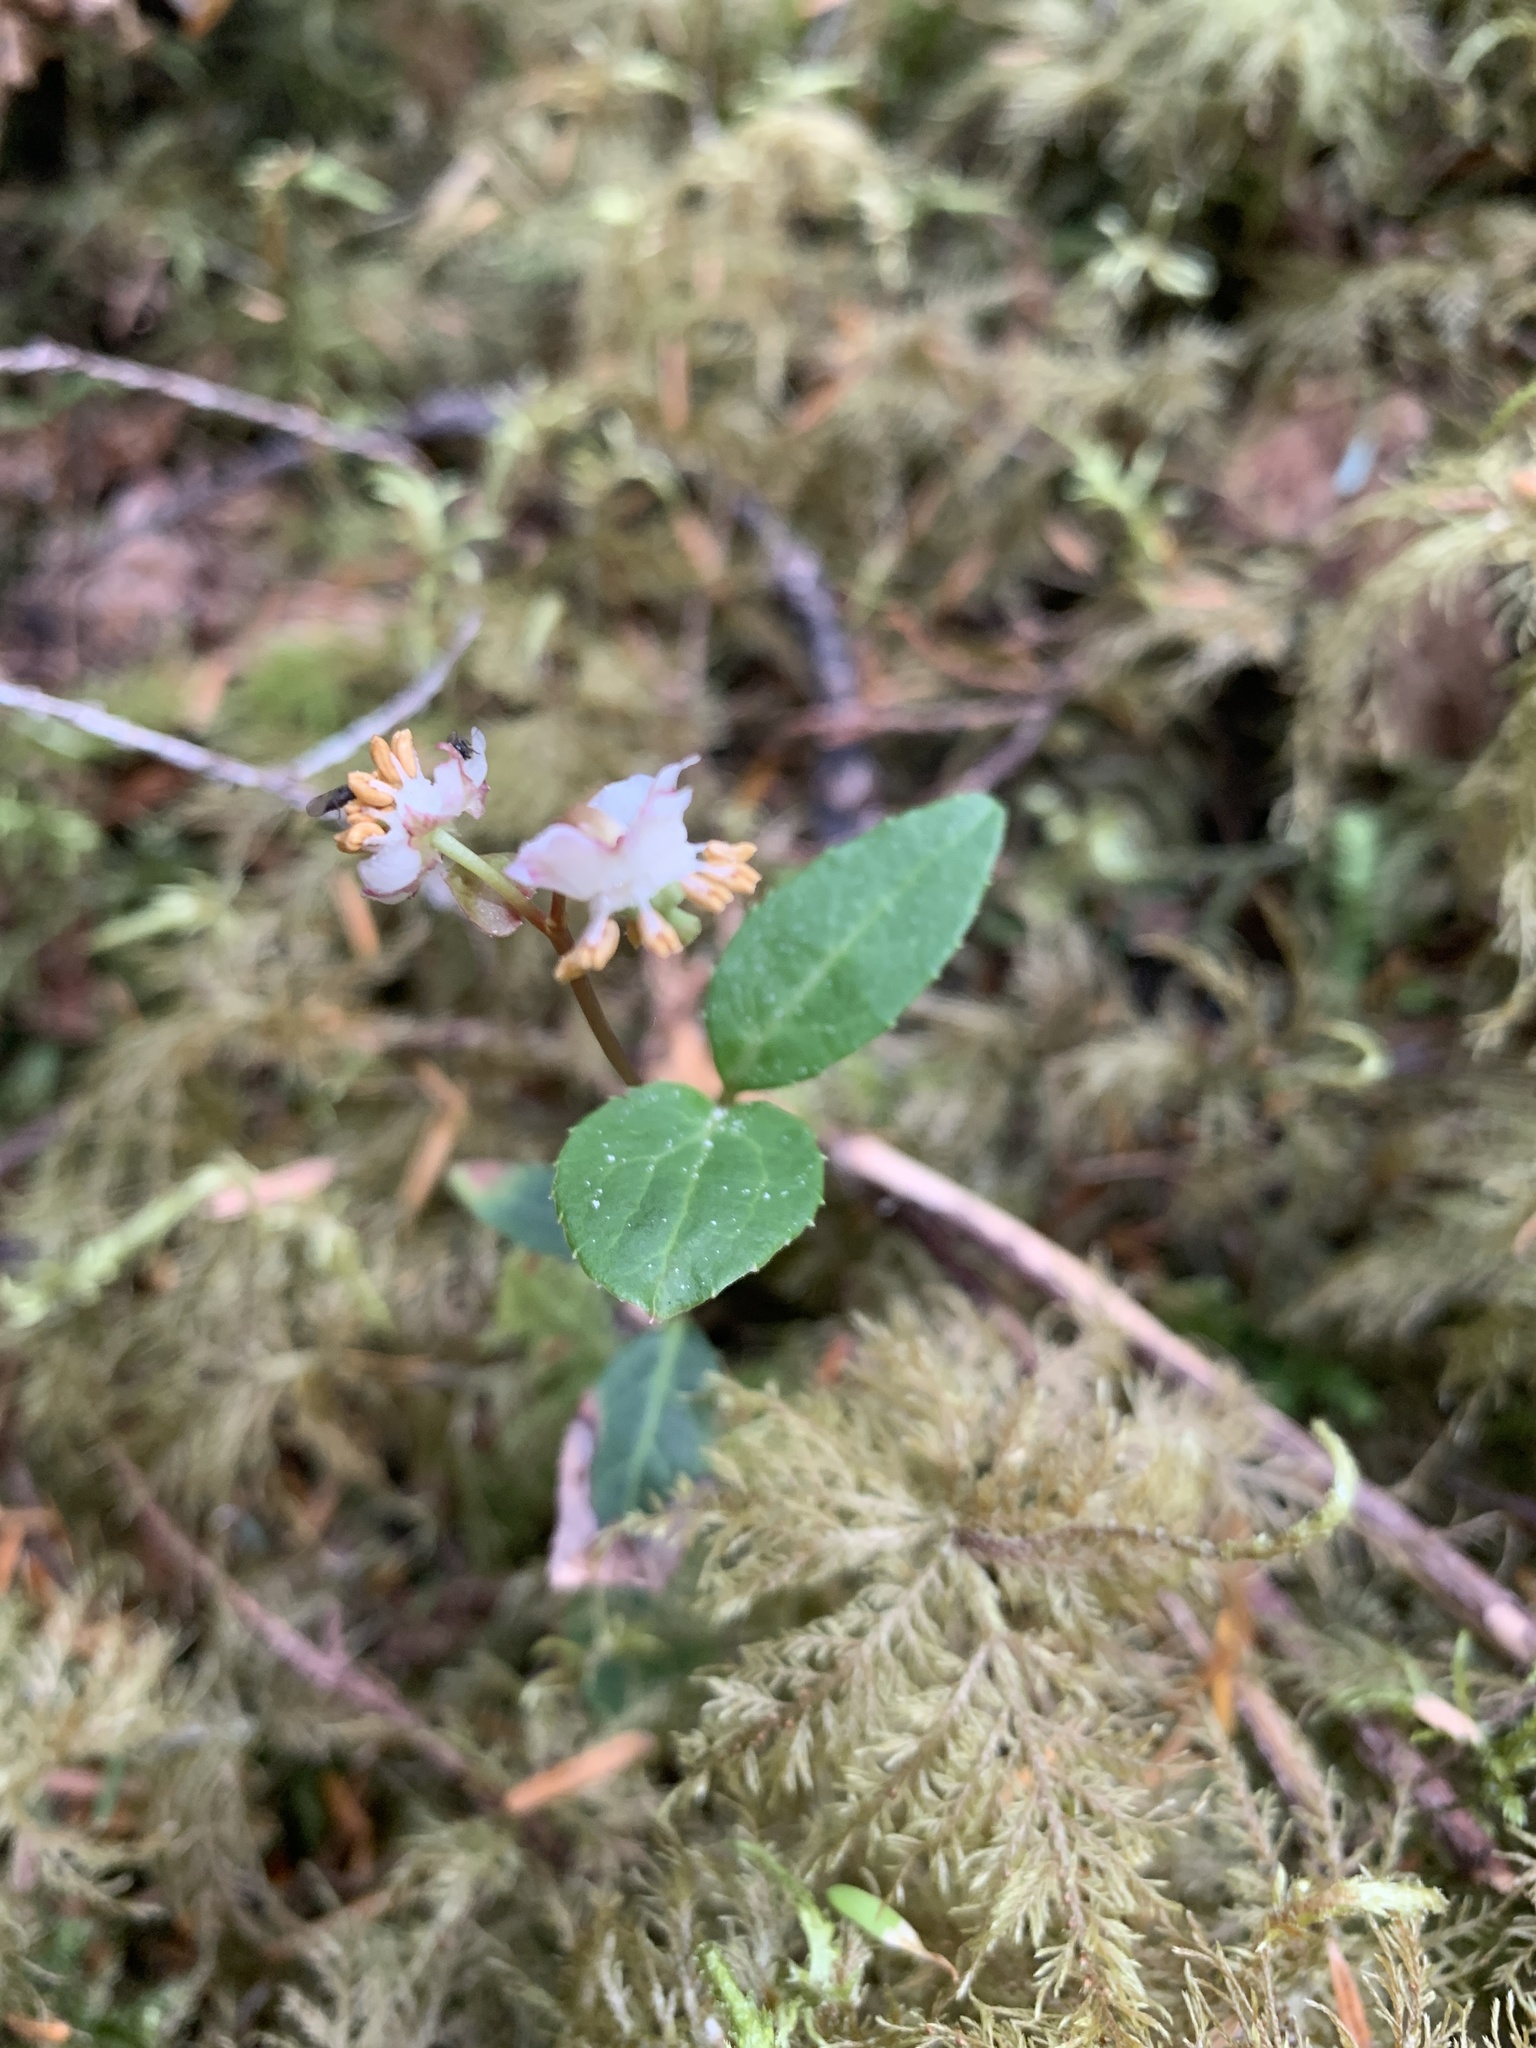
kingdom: Plantae
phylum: Tracheophyta
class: Magnoliopsida
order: Ericales
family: Ericaceae
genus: Chimaphila
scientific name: Chimaphila menziesii
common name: Menzies' pipsissewa
